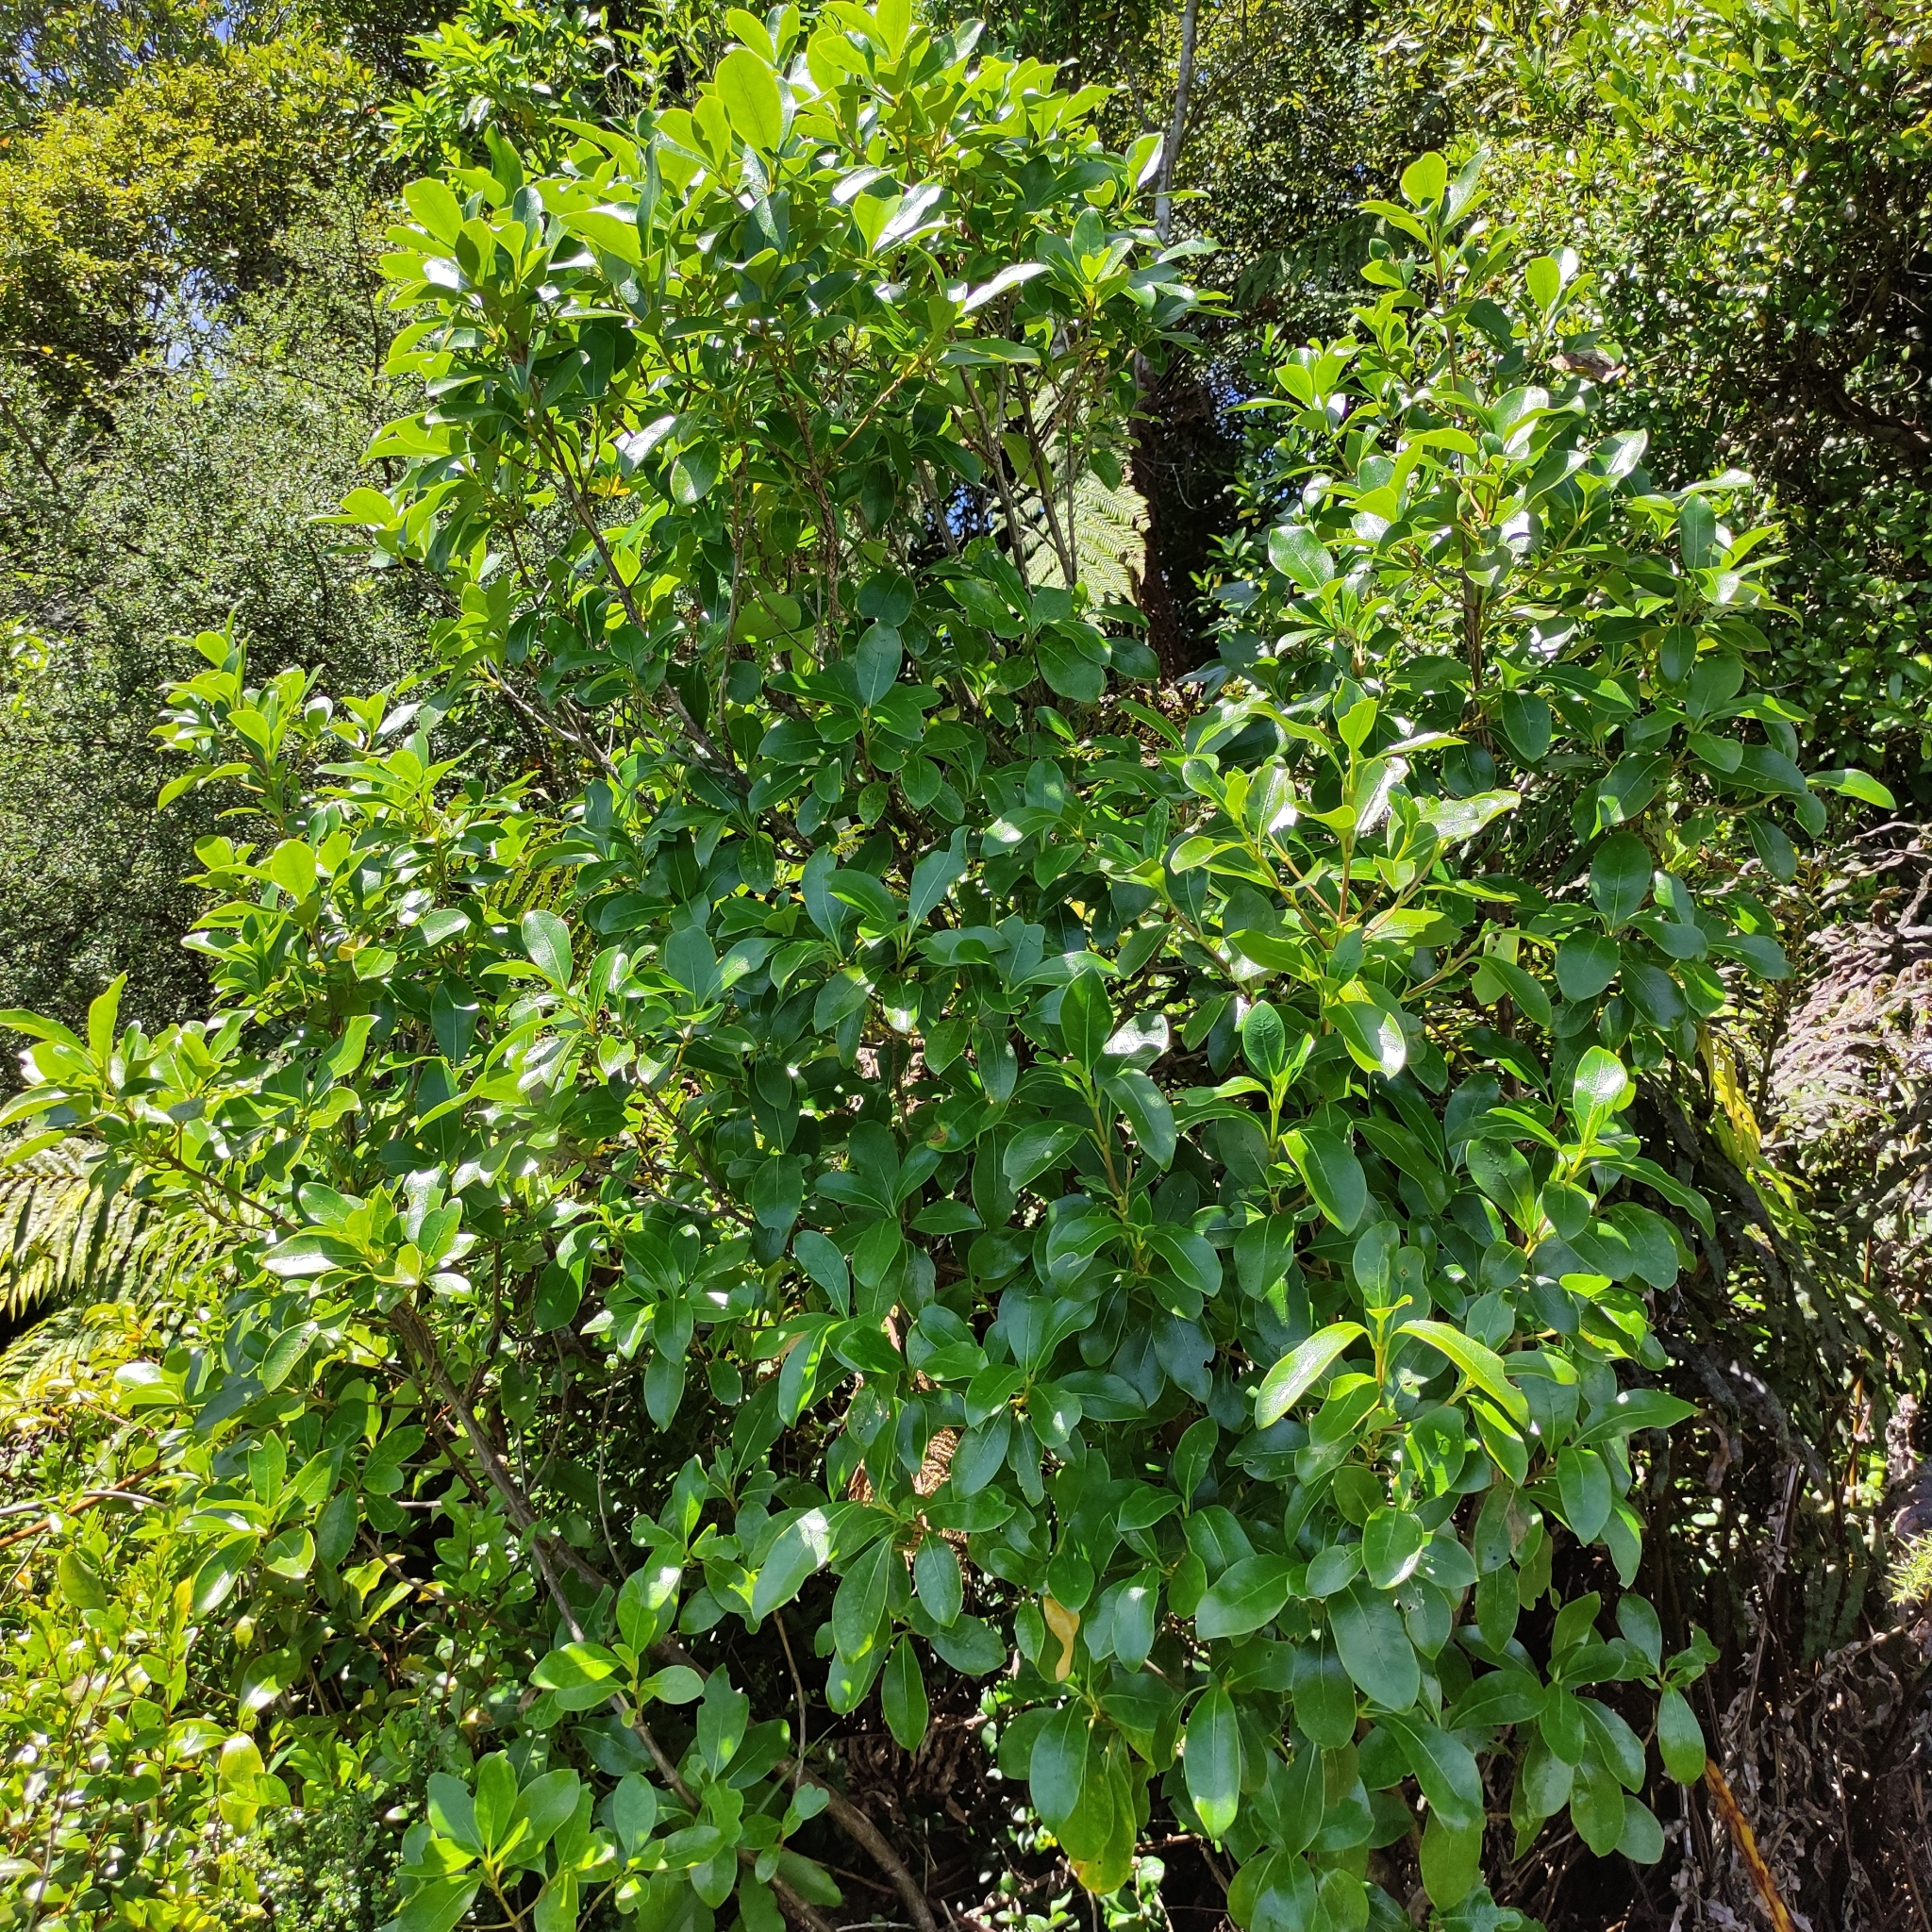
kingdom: Plantae
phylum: Tracheophyta
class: Magnoliopsida
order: Gentianales
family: Rubiaceae
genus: Coprosma
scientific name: Coprosma lucida
